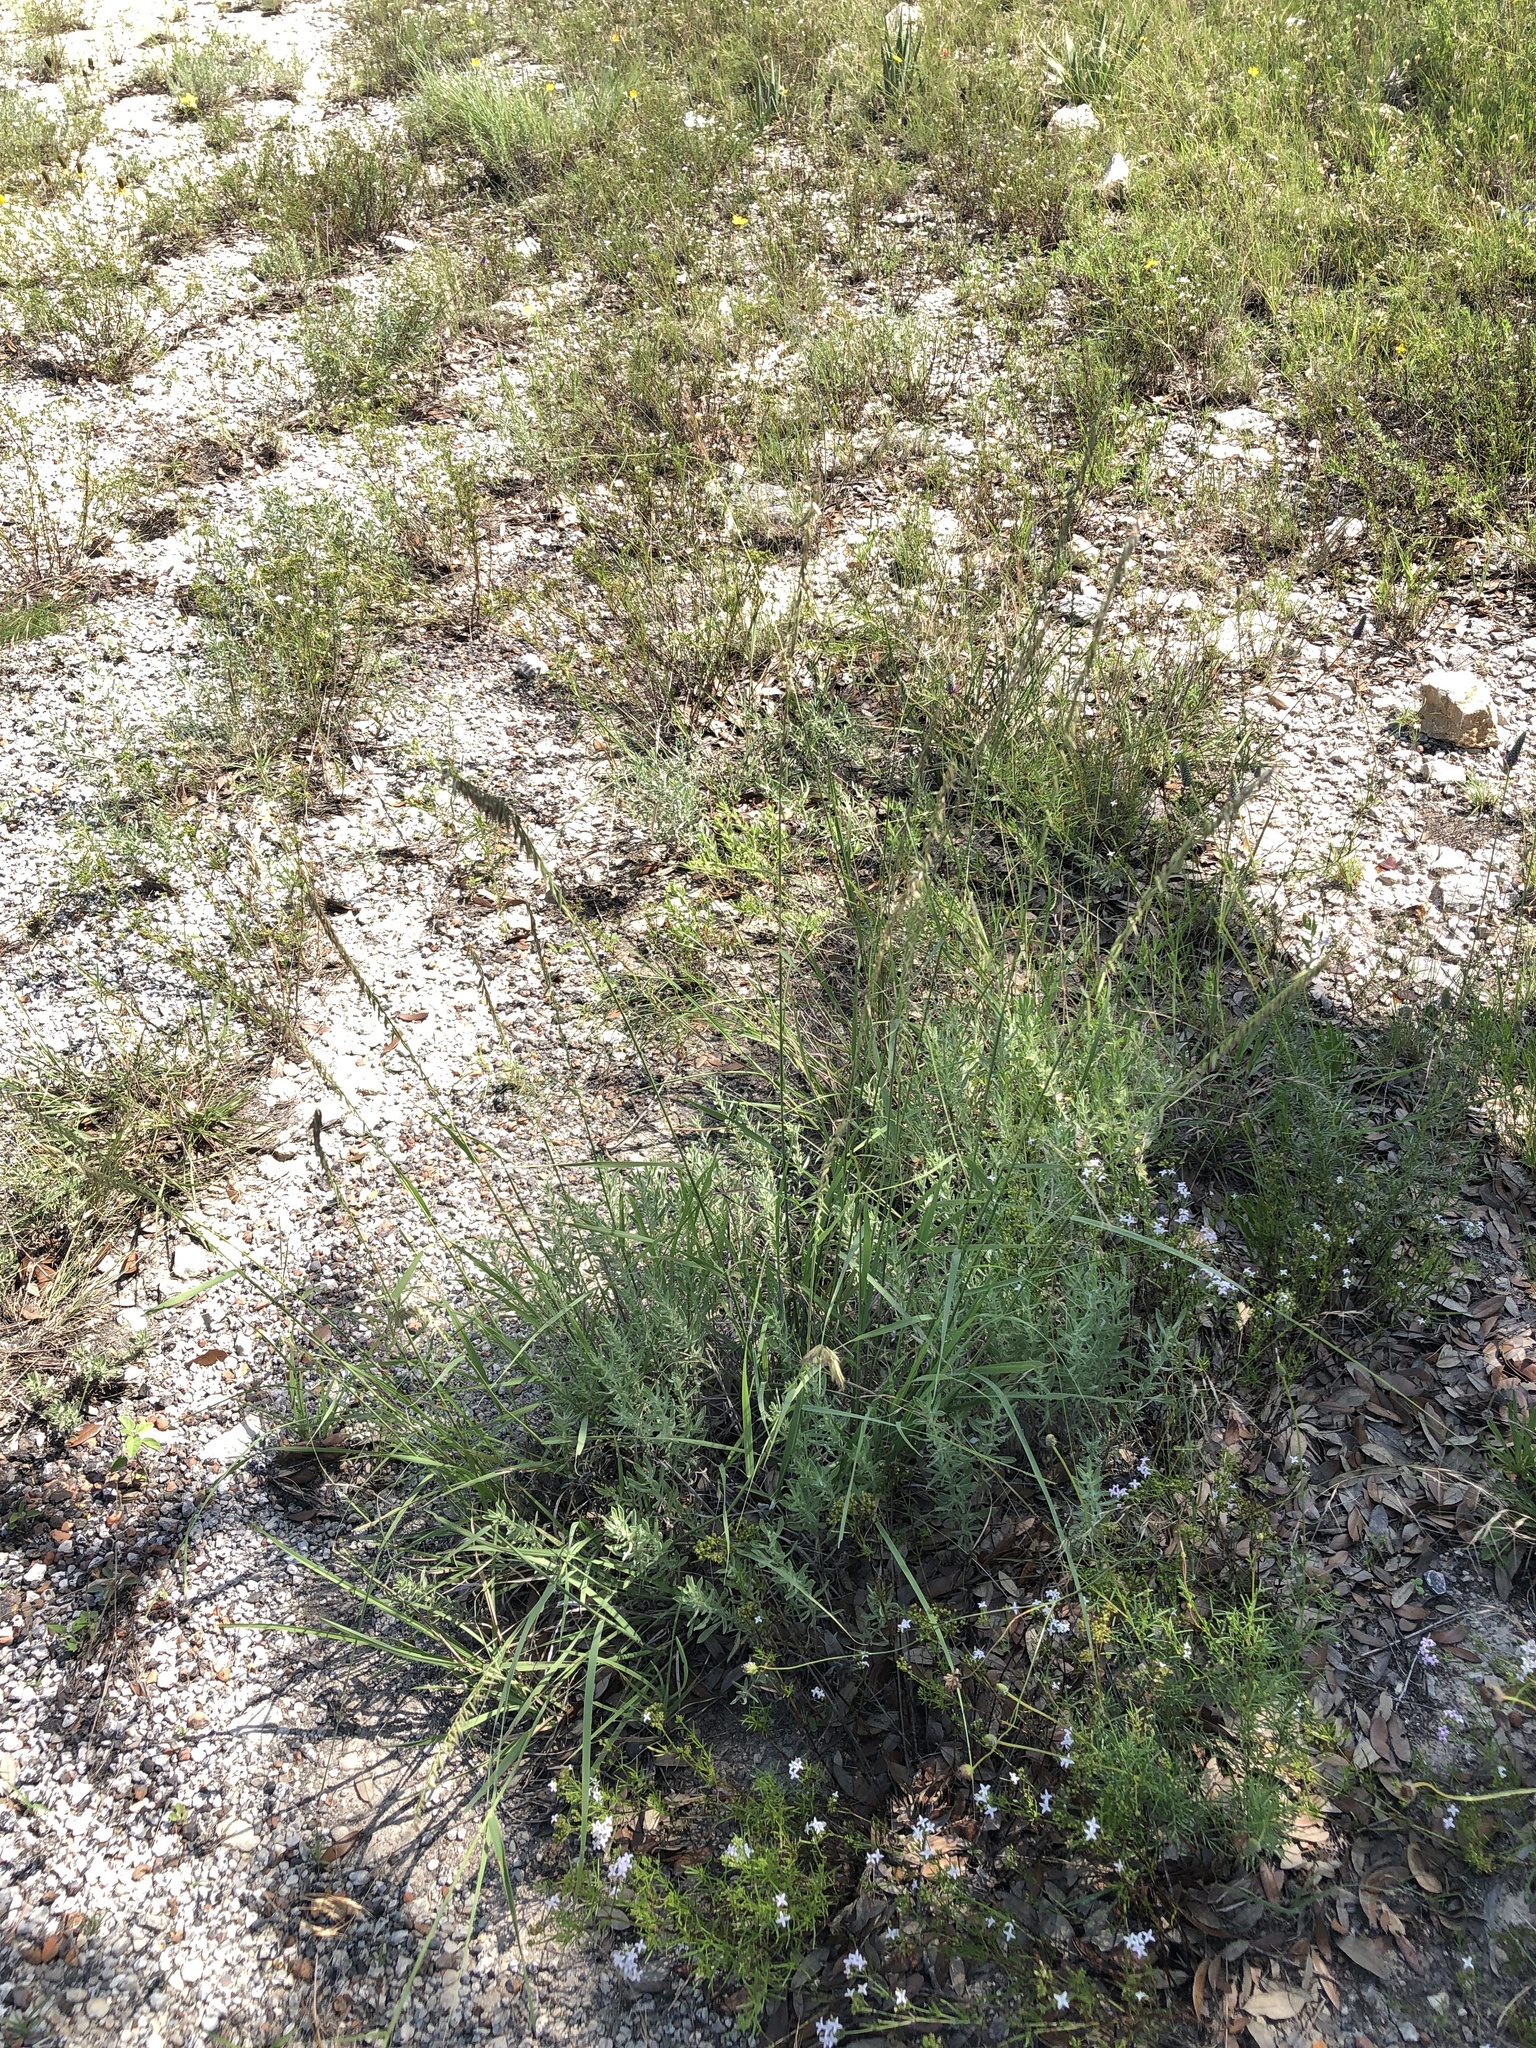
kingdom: Plantae
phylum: Tracheophyta
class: Liliopsida
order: Poales
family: Poaceae
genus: Bouteloua
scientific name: Bouteloua curtipendula
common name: Side-oats grama
